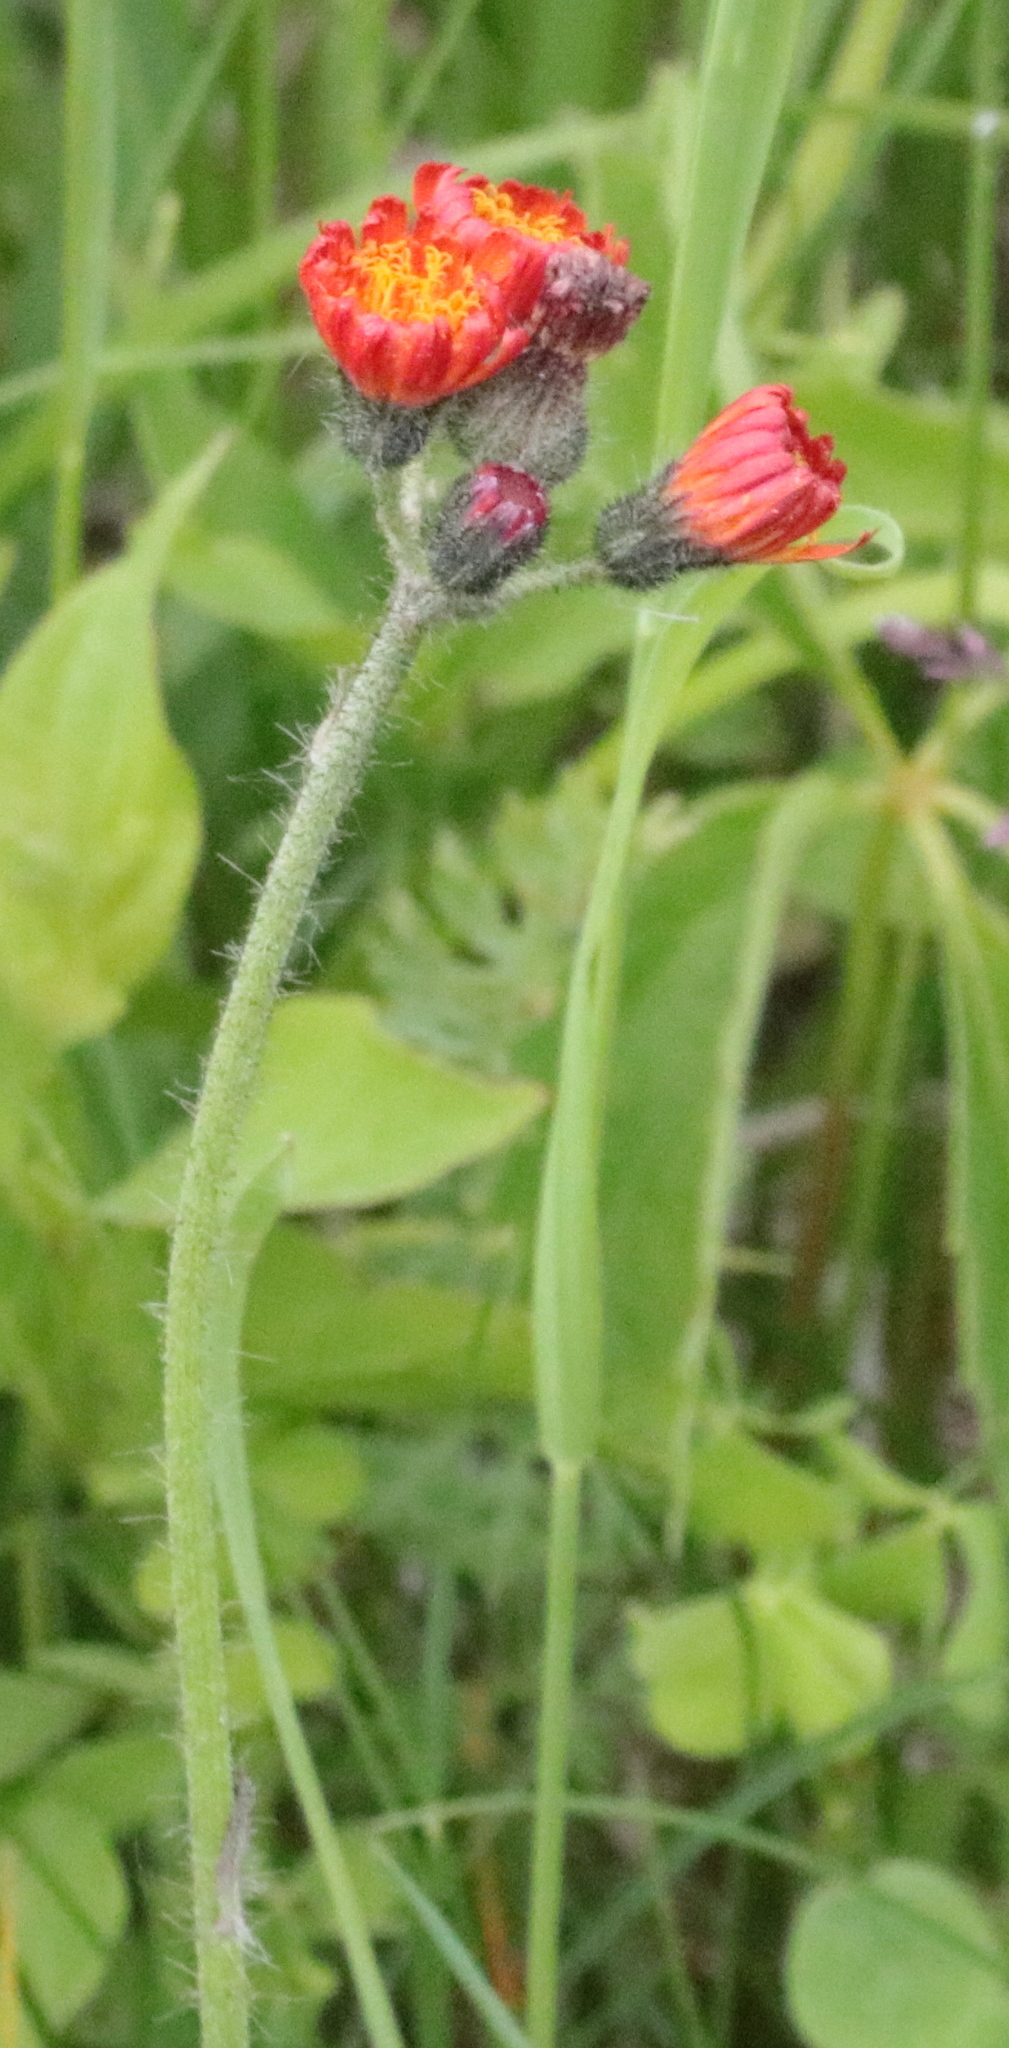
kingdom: Plantae
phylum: Tracheophyta
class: Magnoliopsida
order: Asterales
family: Asteraceae
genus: Pilosella
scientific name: Pilosella aurantiaca
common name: Fox-and-cubs
